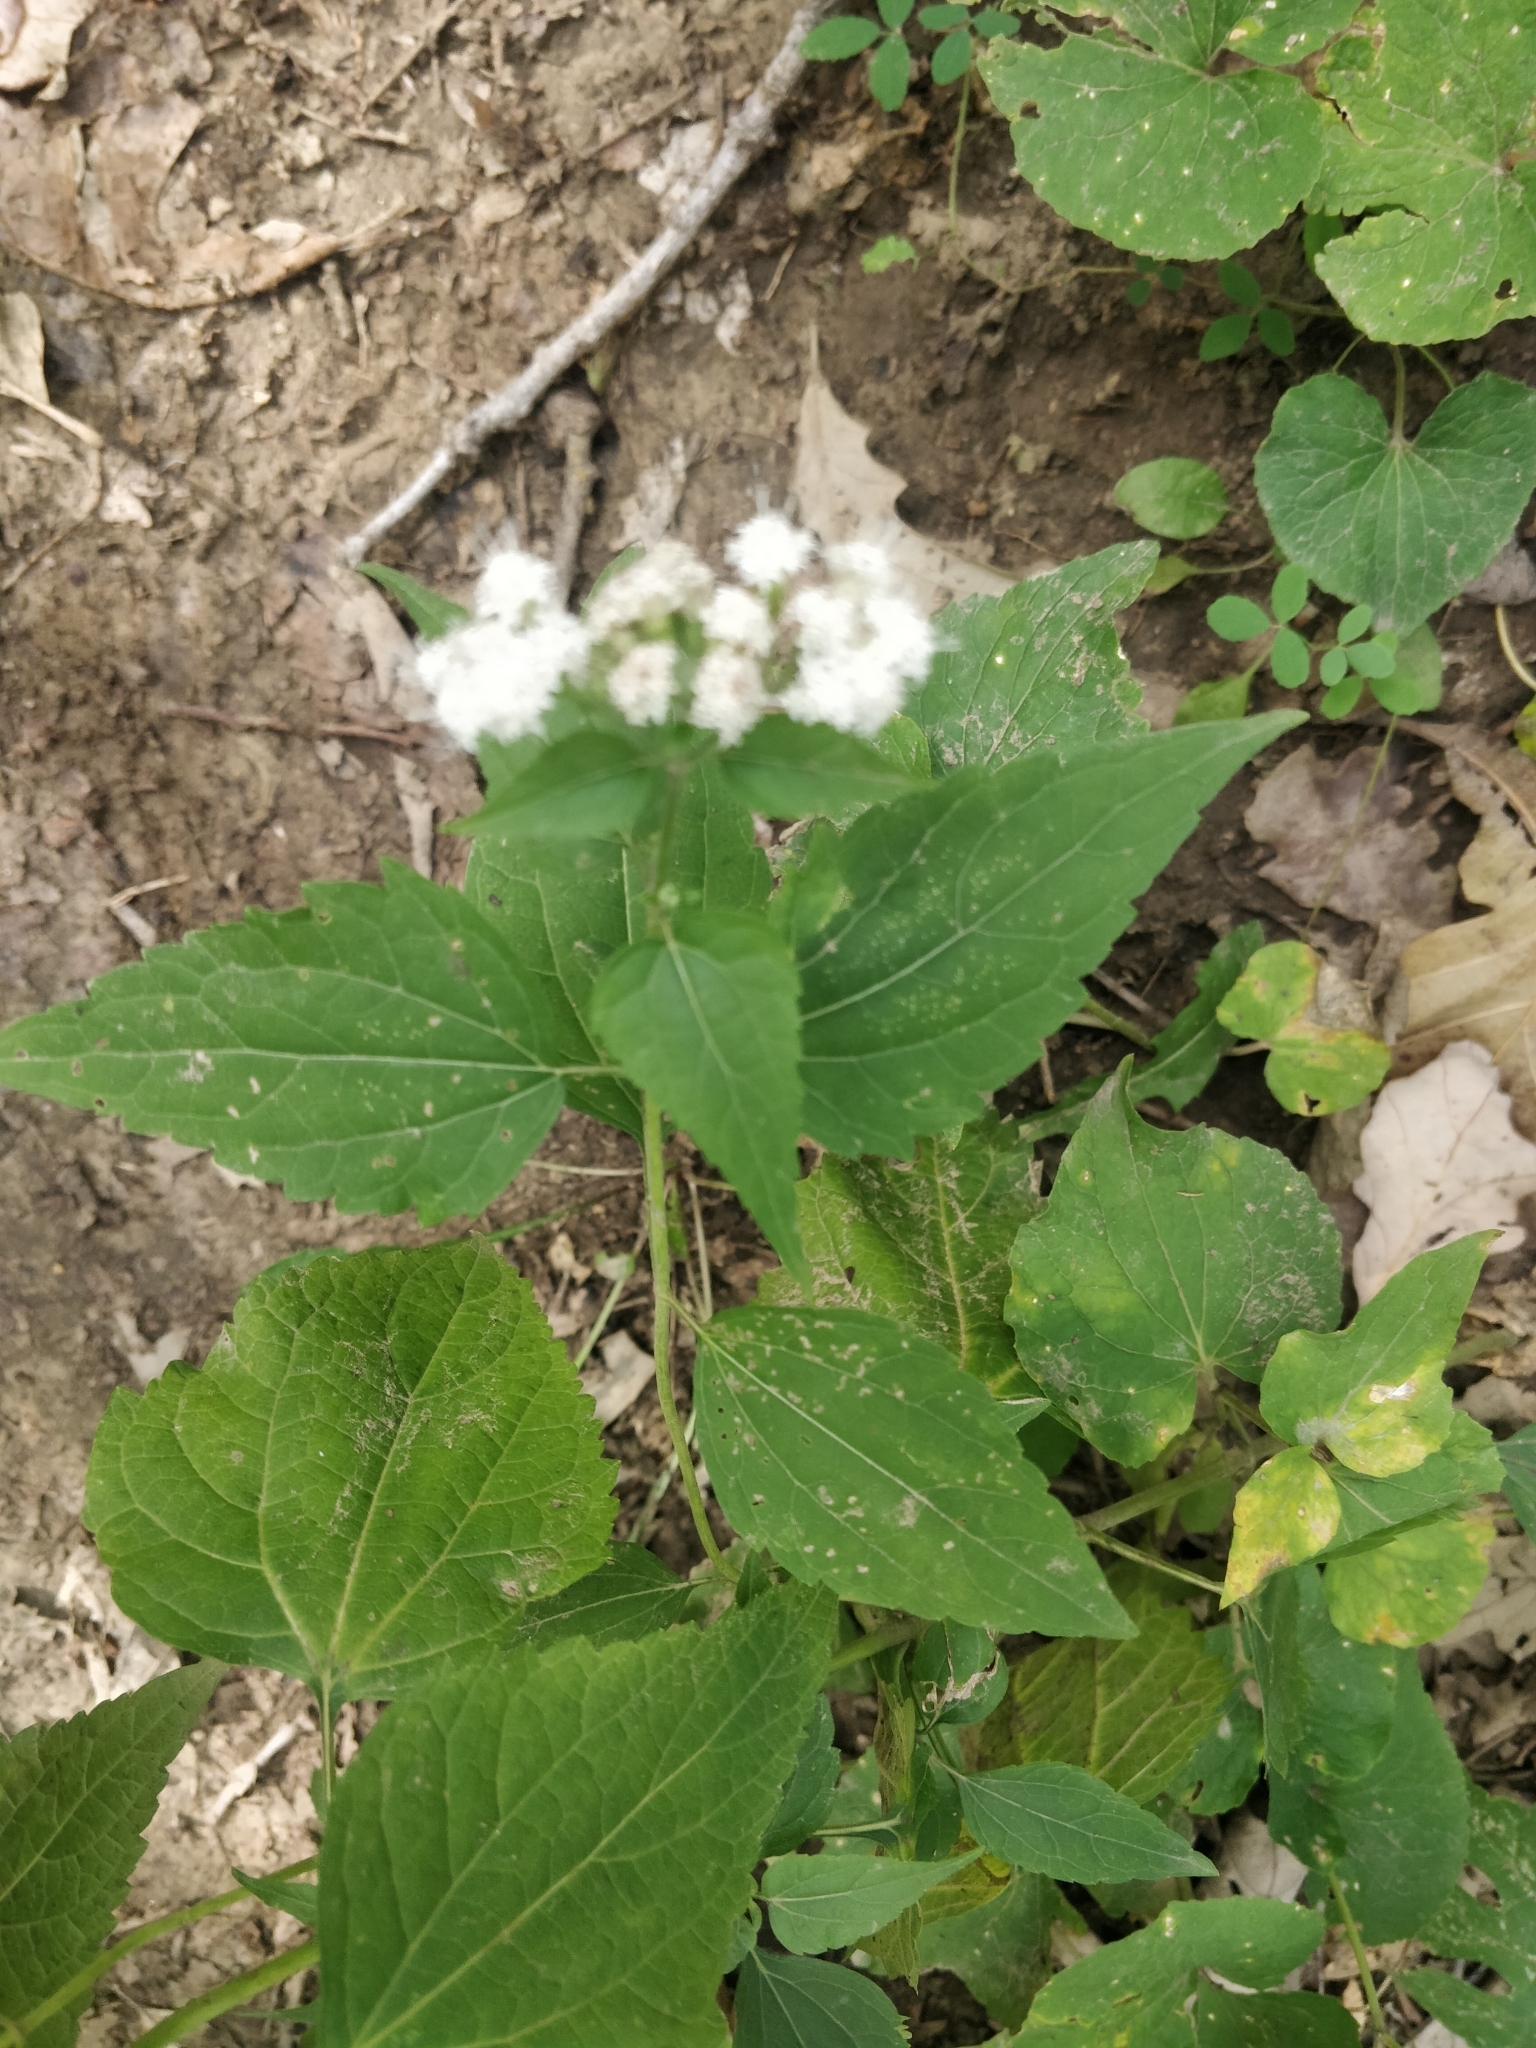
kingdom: Plantae
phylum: Tracheophyta
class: Magnoliopsida
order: Asterales
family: Asteraceae
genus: Ageratina
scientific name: Ageratina altissima
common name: White snakeroot
